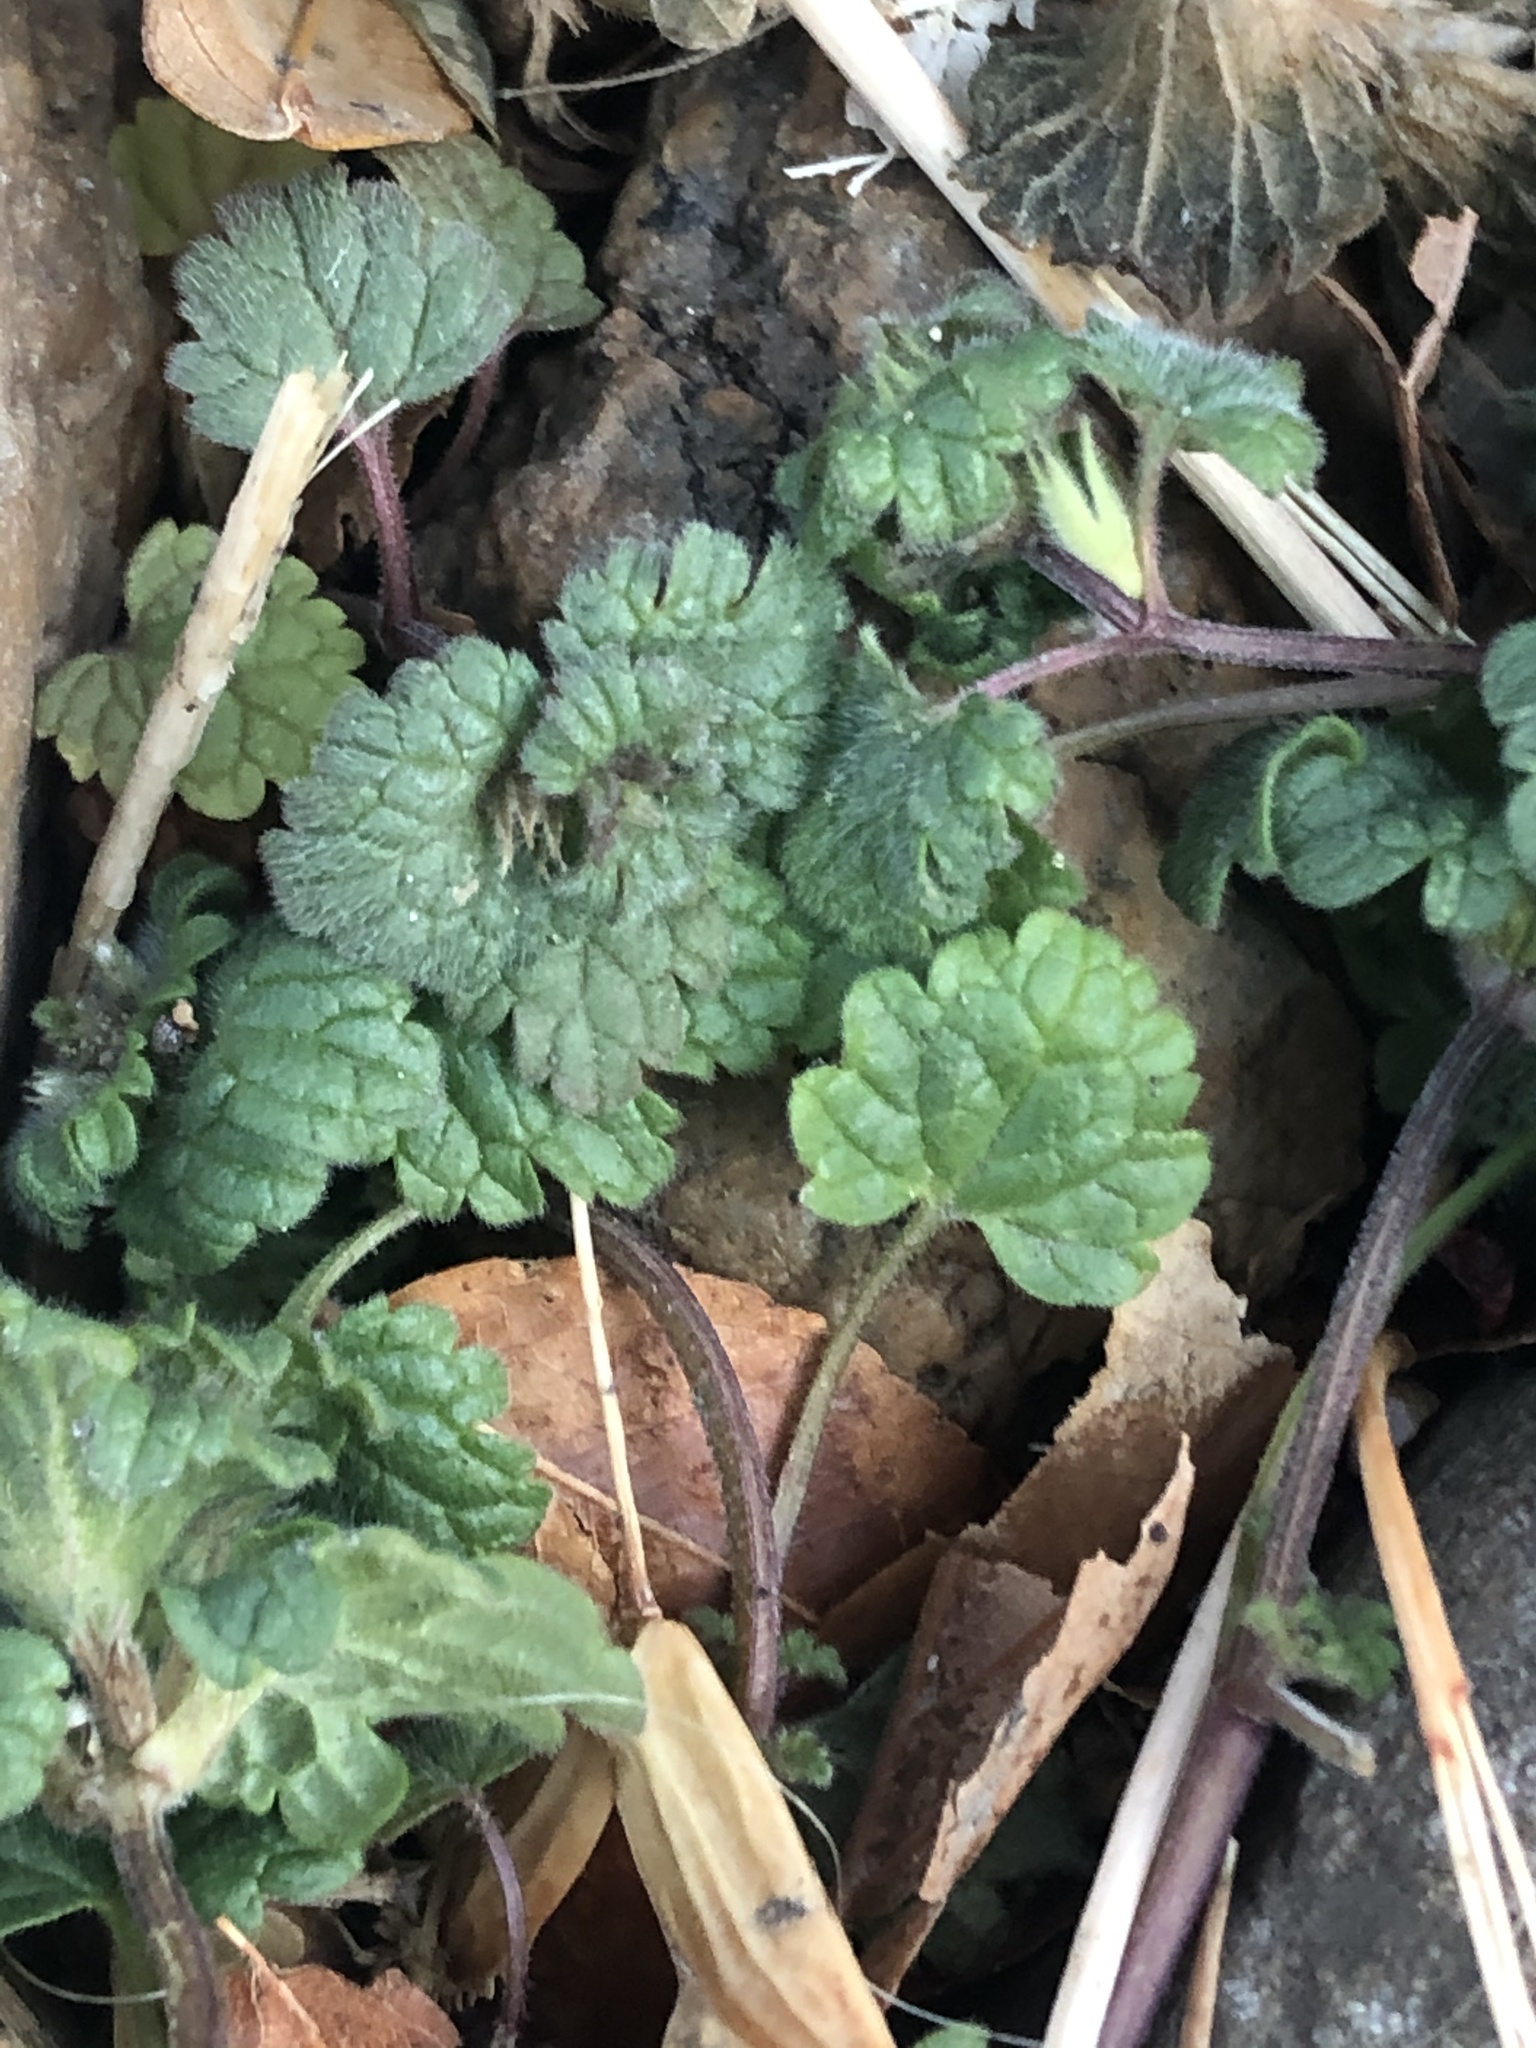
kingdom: Plantae
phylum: Tracheophyta
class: Magnoliopsida
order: Lamiales
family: Lamiaceae
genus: Lamium
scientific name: Lamium amplexicaule
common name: Henbit dead-nettle
